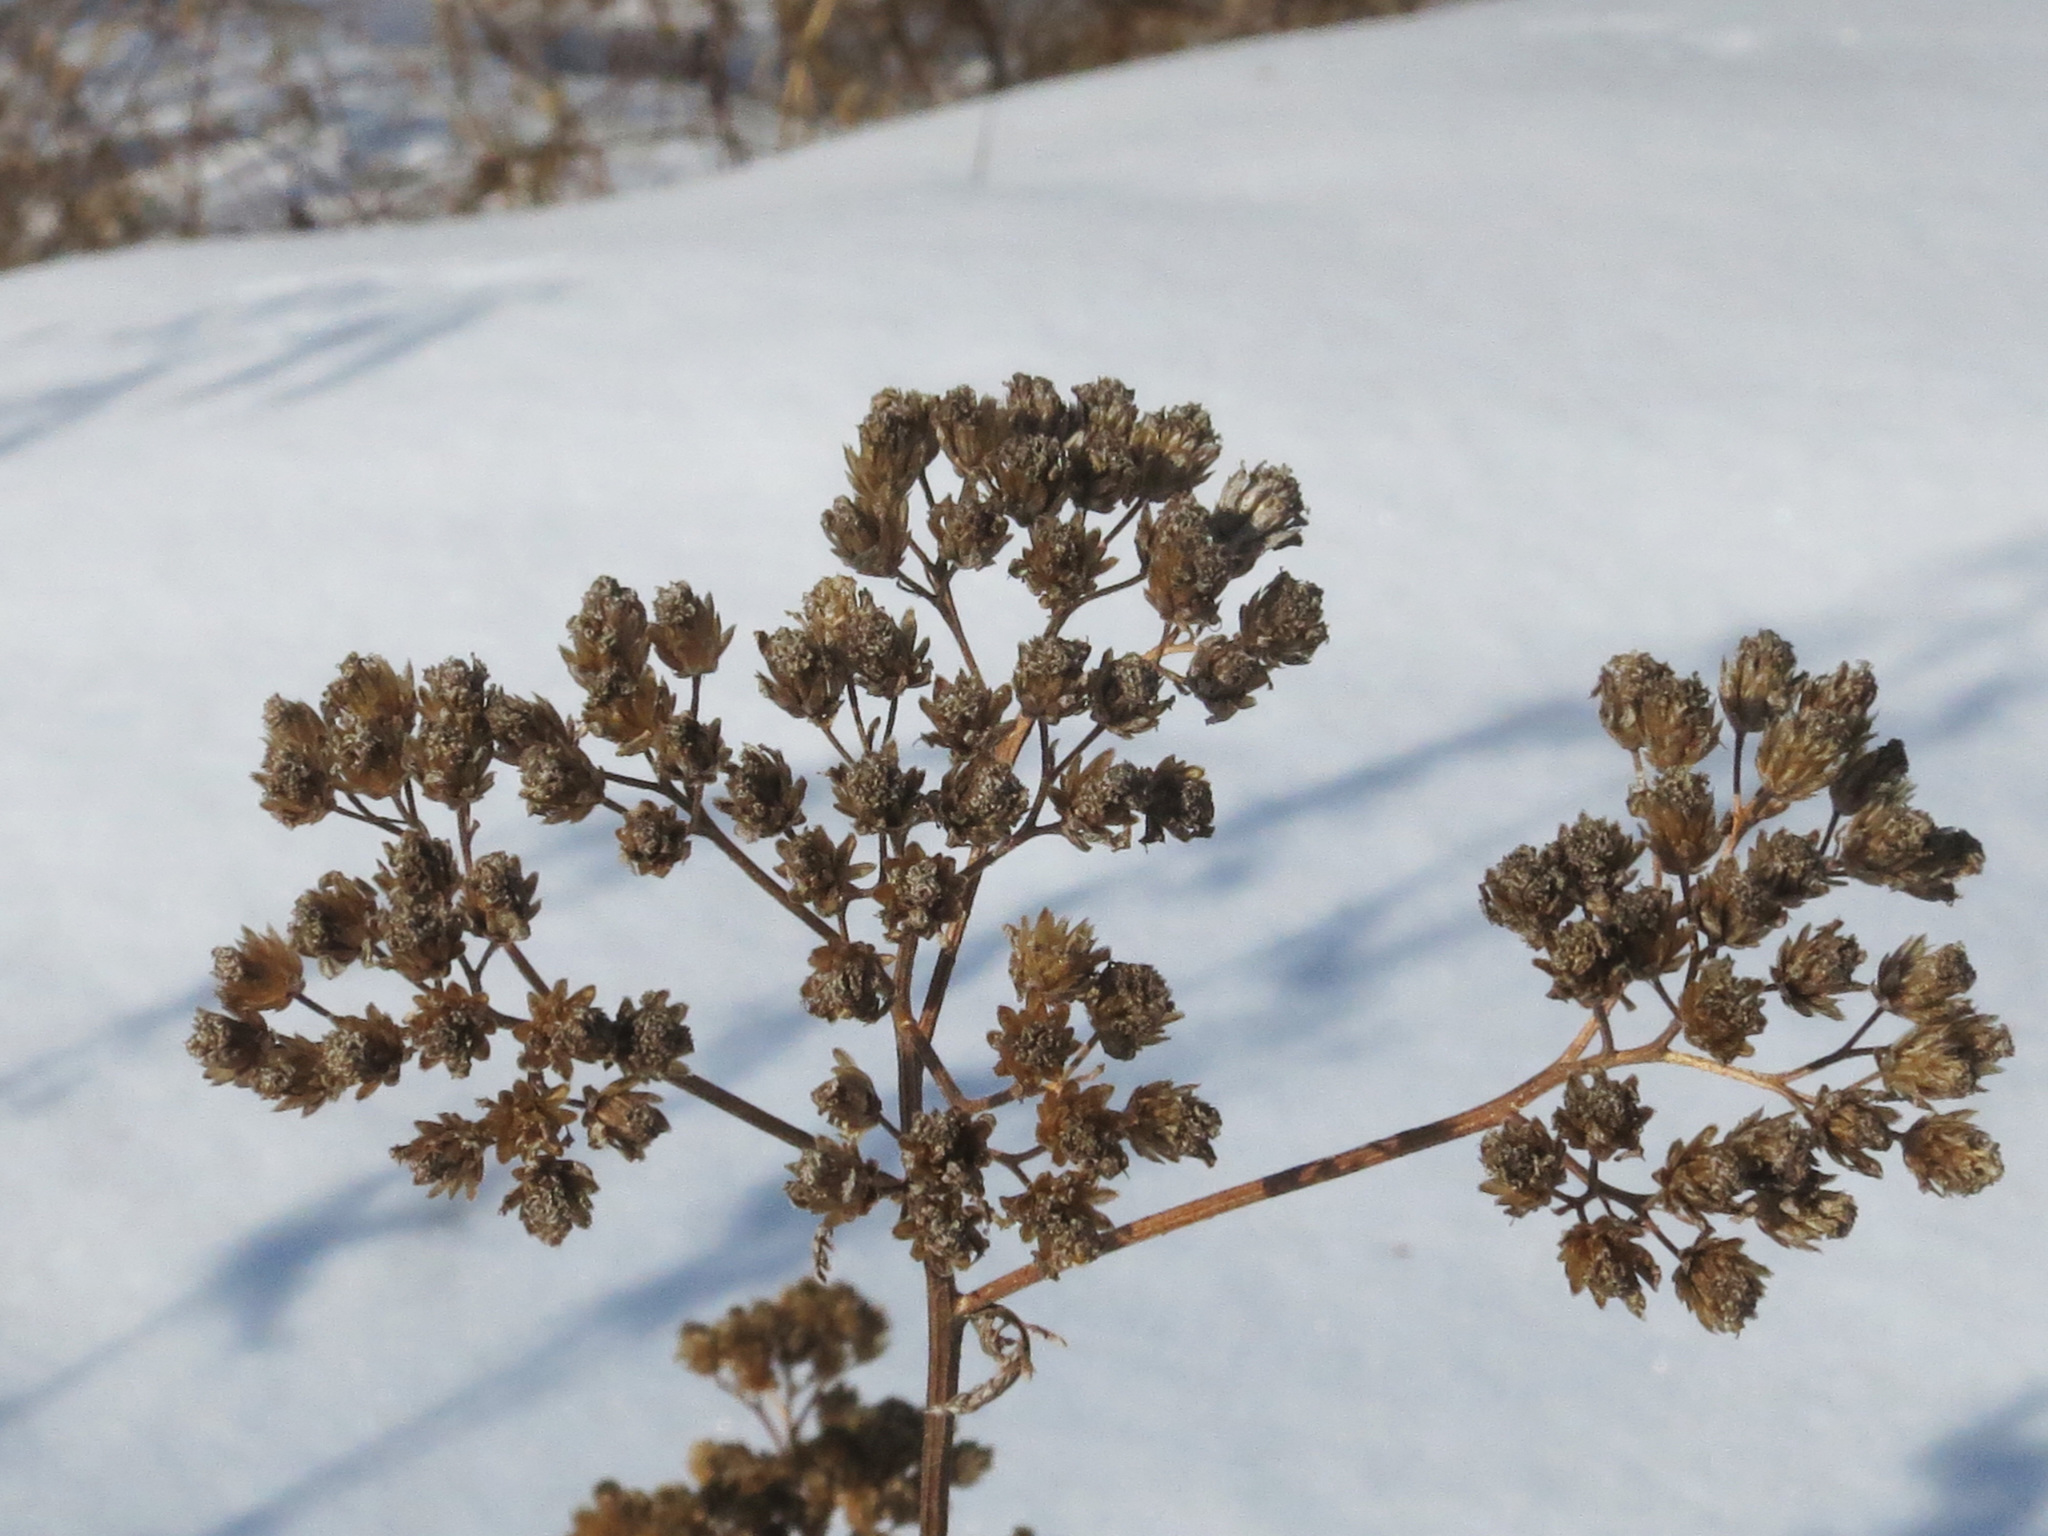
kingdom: Plantae
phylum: Tracheophyta
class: Magnoliopsida
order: Asterales
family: Asteraceae
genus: Achillea
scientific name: Achillea millefolium
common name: Yarrow
